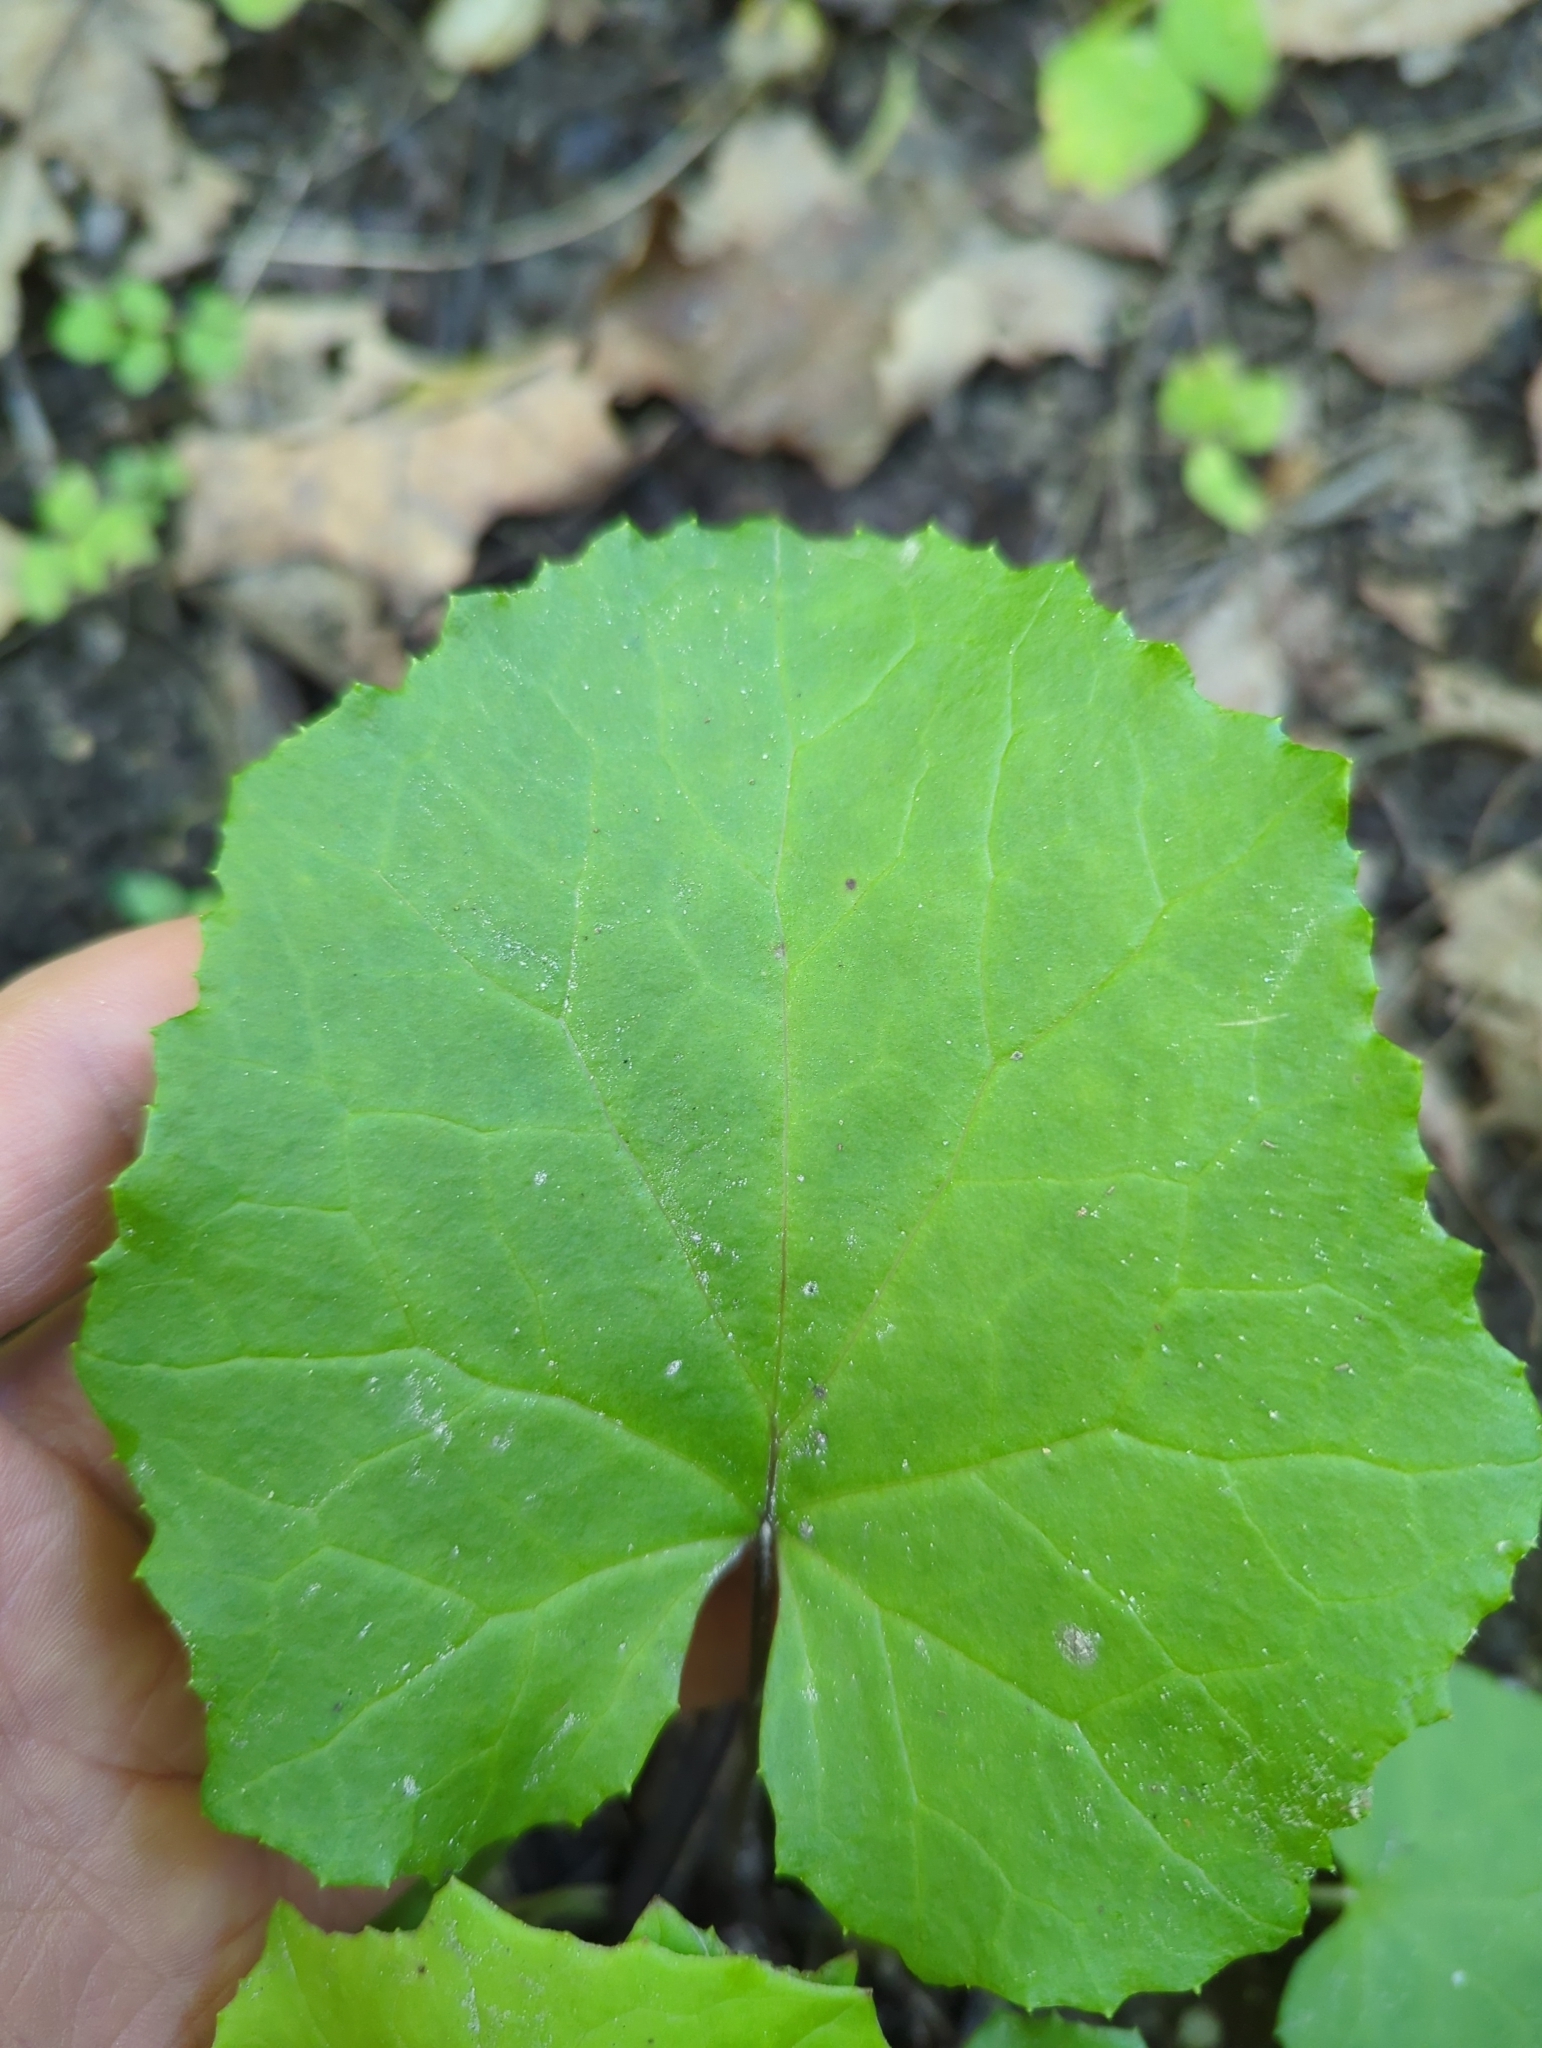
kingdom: Plantae
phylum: Tracheophyta
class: Magnoliopsida
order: Asterales
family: Asteraceae
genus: Tussilago
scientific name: Tussilago farfara
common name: Coltsfoot
